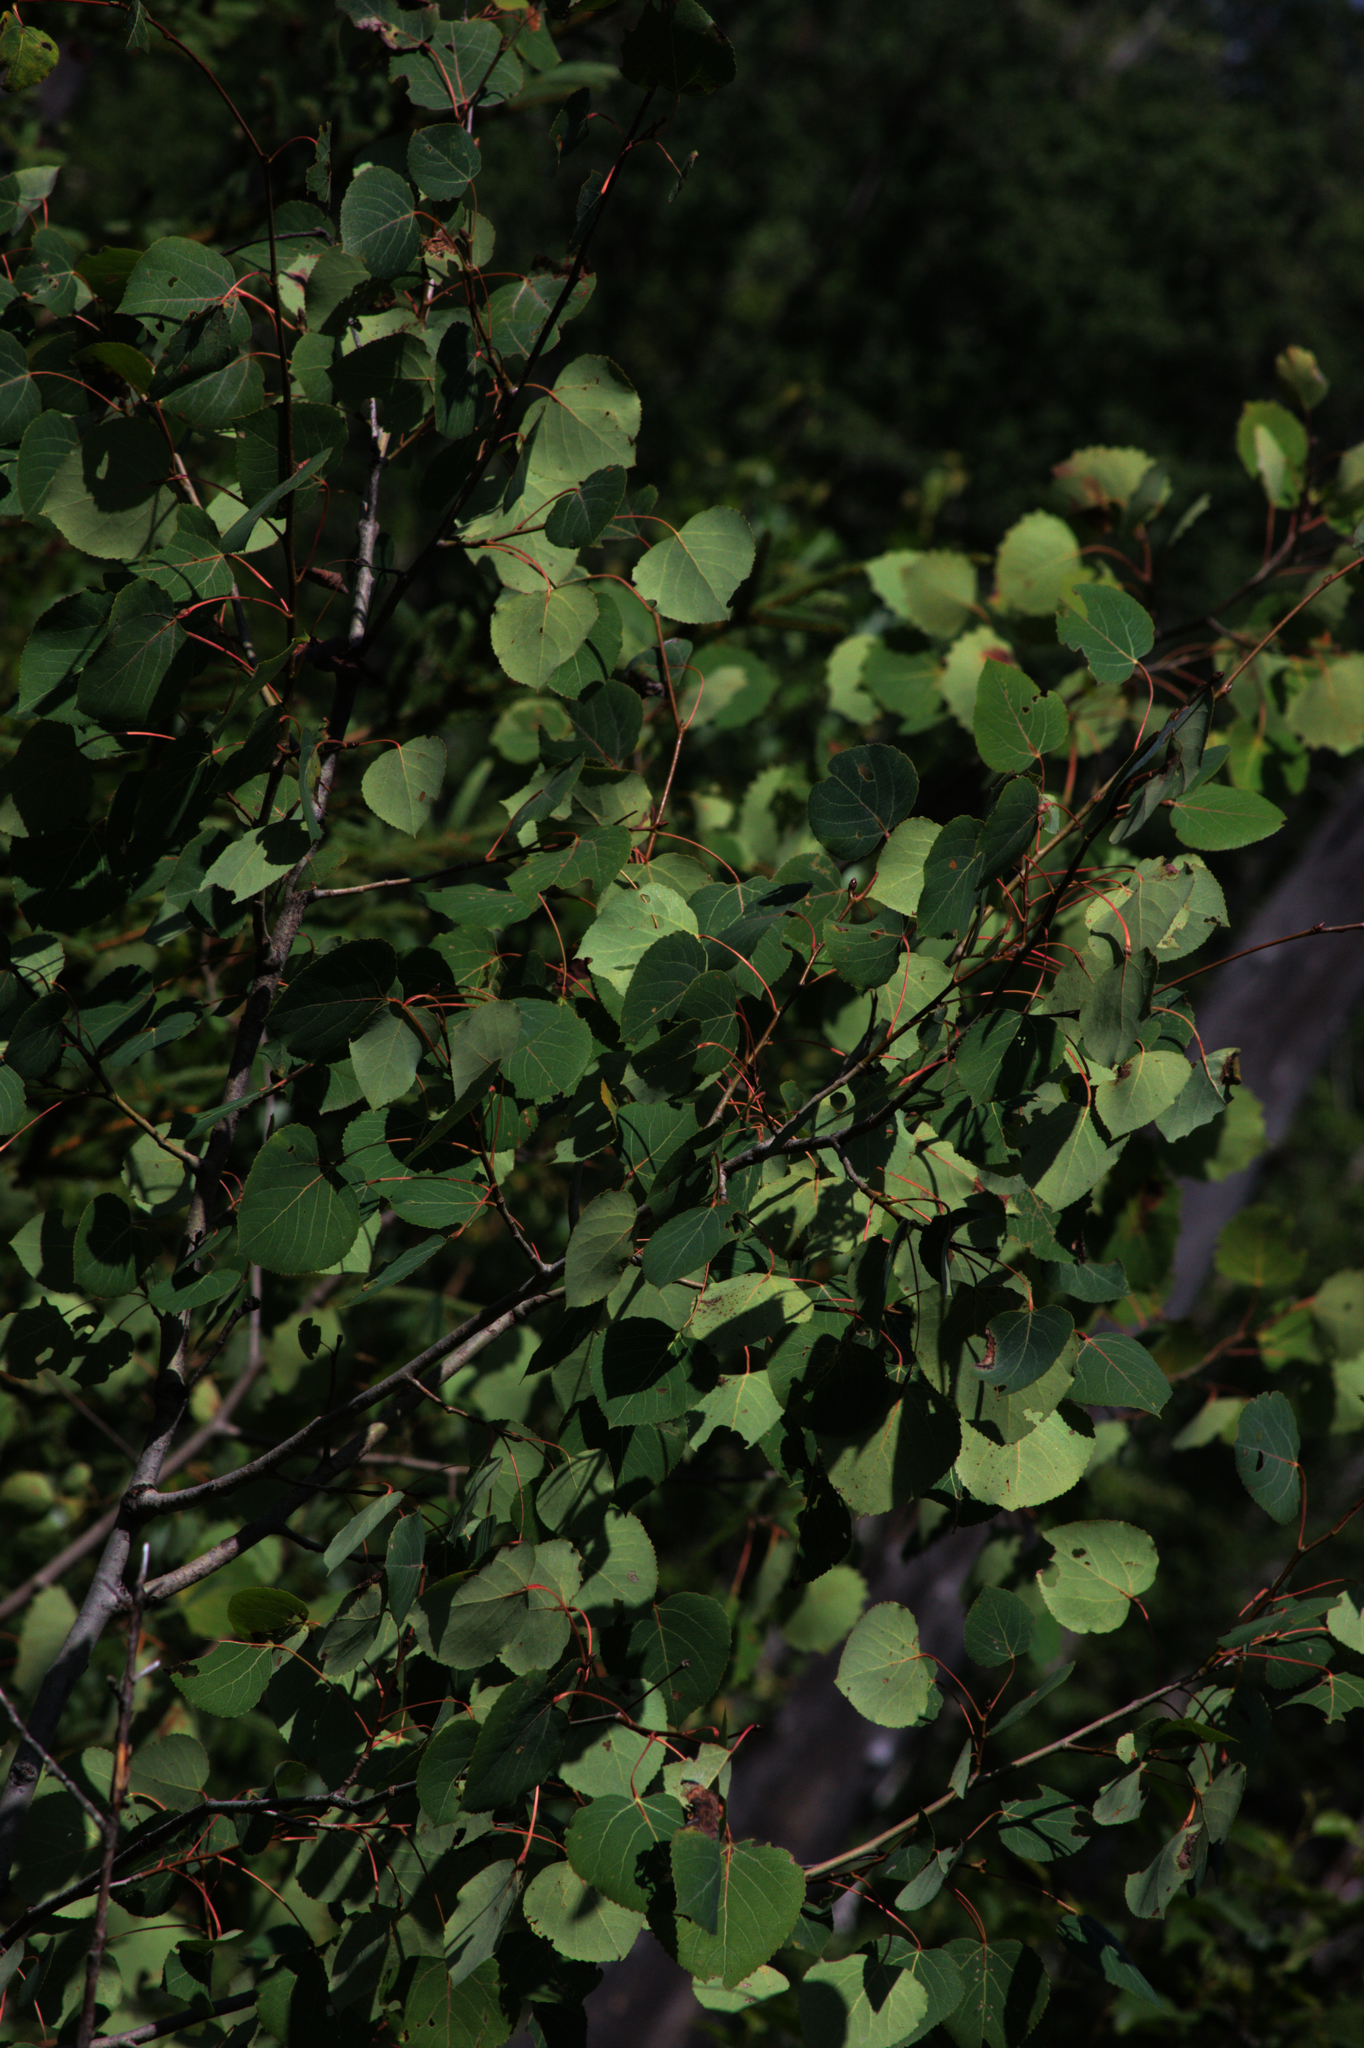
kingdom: Plantae
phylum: Tracheophyta
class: Magnoliopsida
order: Malpighiales
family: Salicaceae
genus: Populus
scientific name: Populus tremuloides
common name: Quaking aspen
